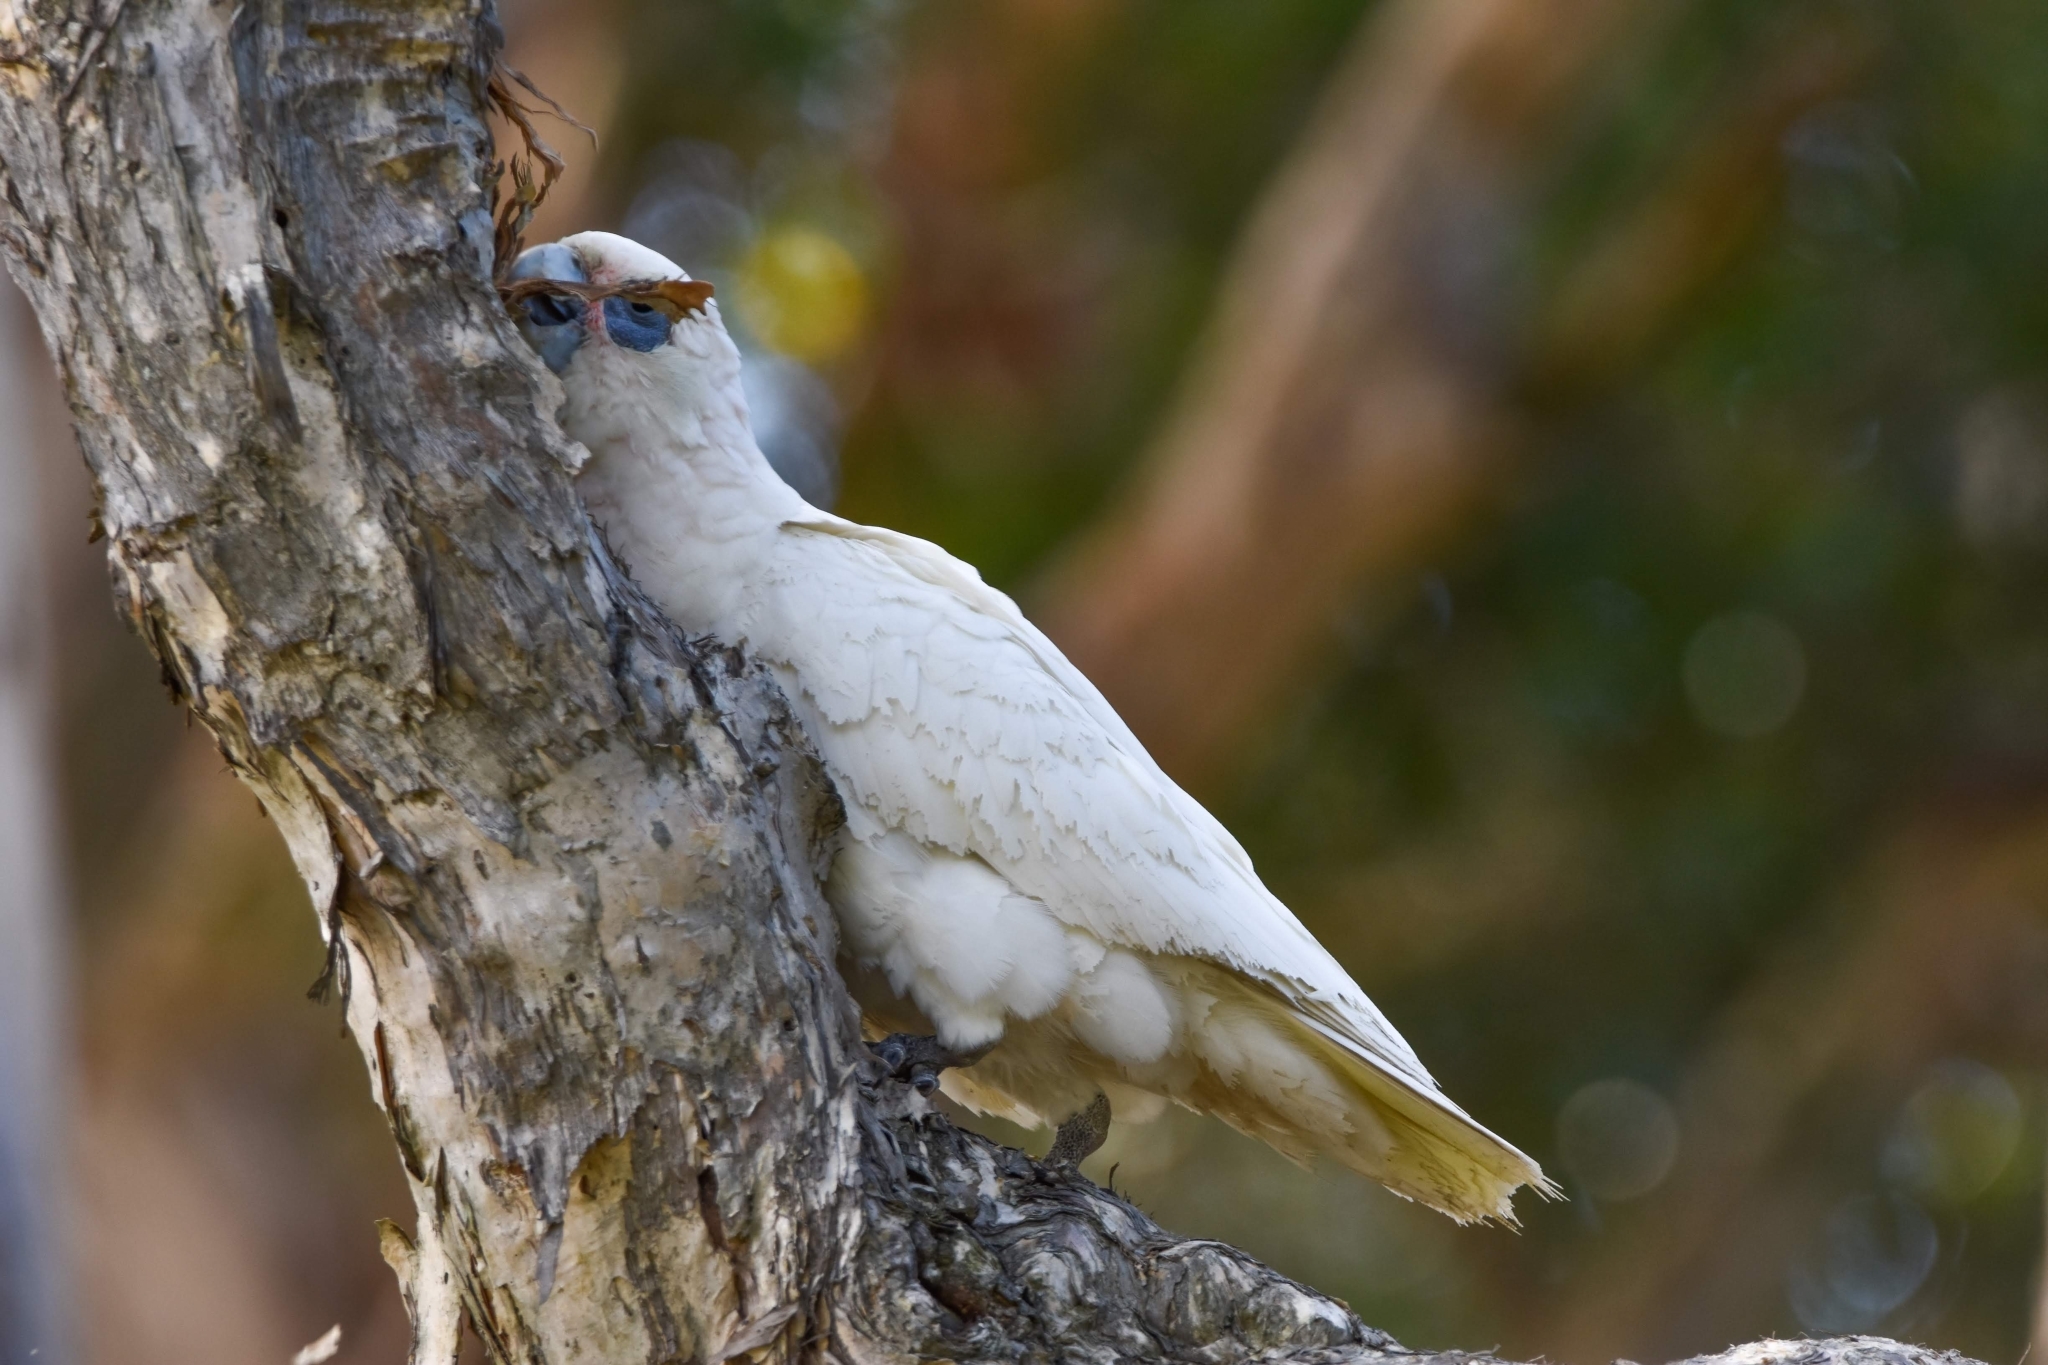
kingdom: Animalia
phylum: Chordata
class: Aves
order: Psittaciformes
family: Psittacidae
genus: Cacatua
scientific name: Cacatua sanguinea
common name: Little corella
